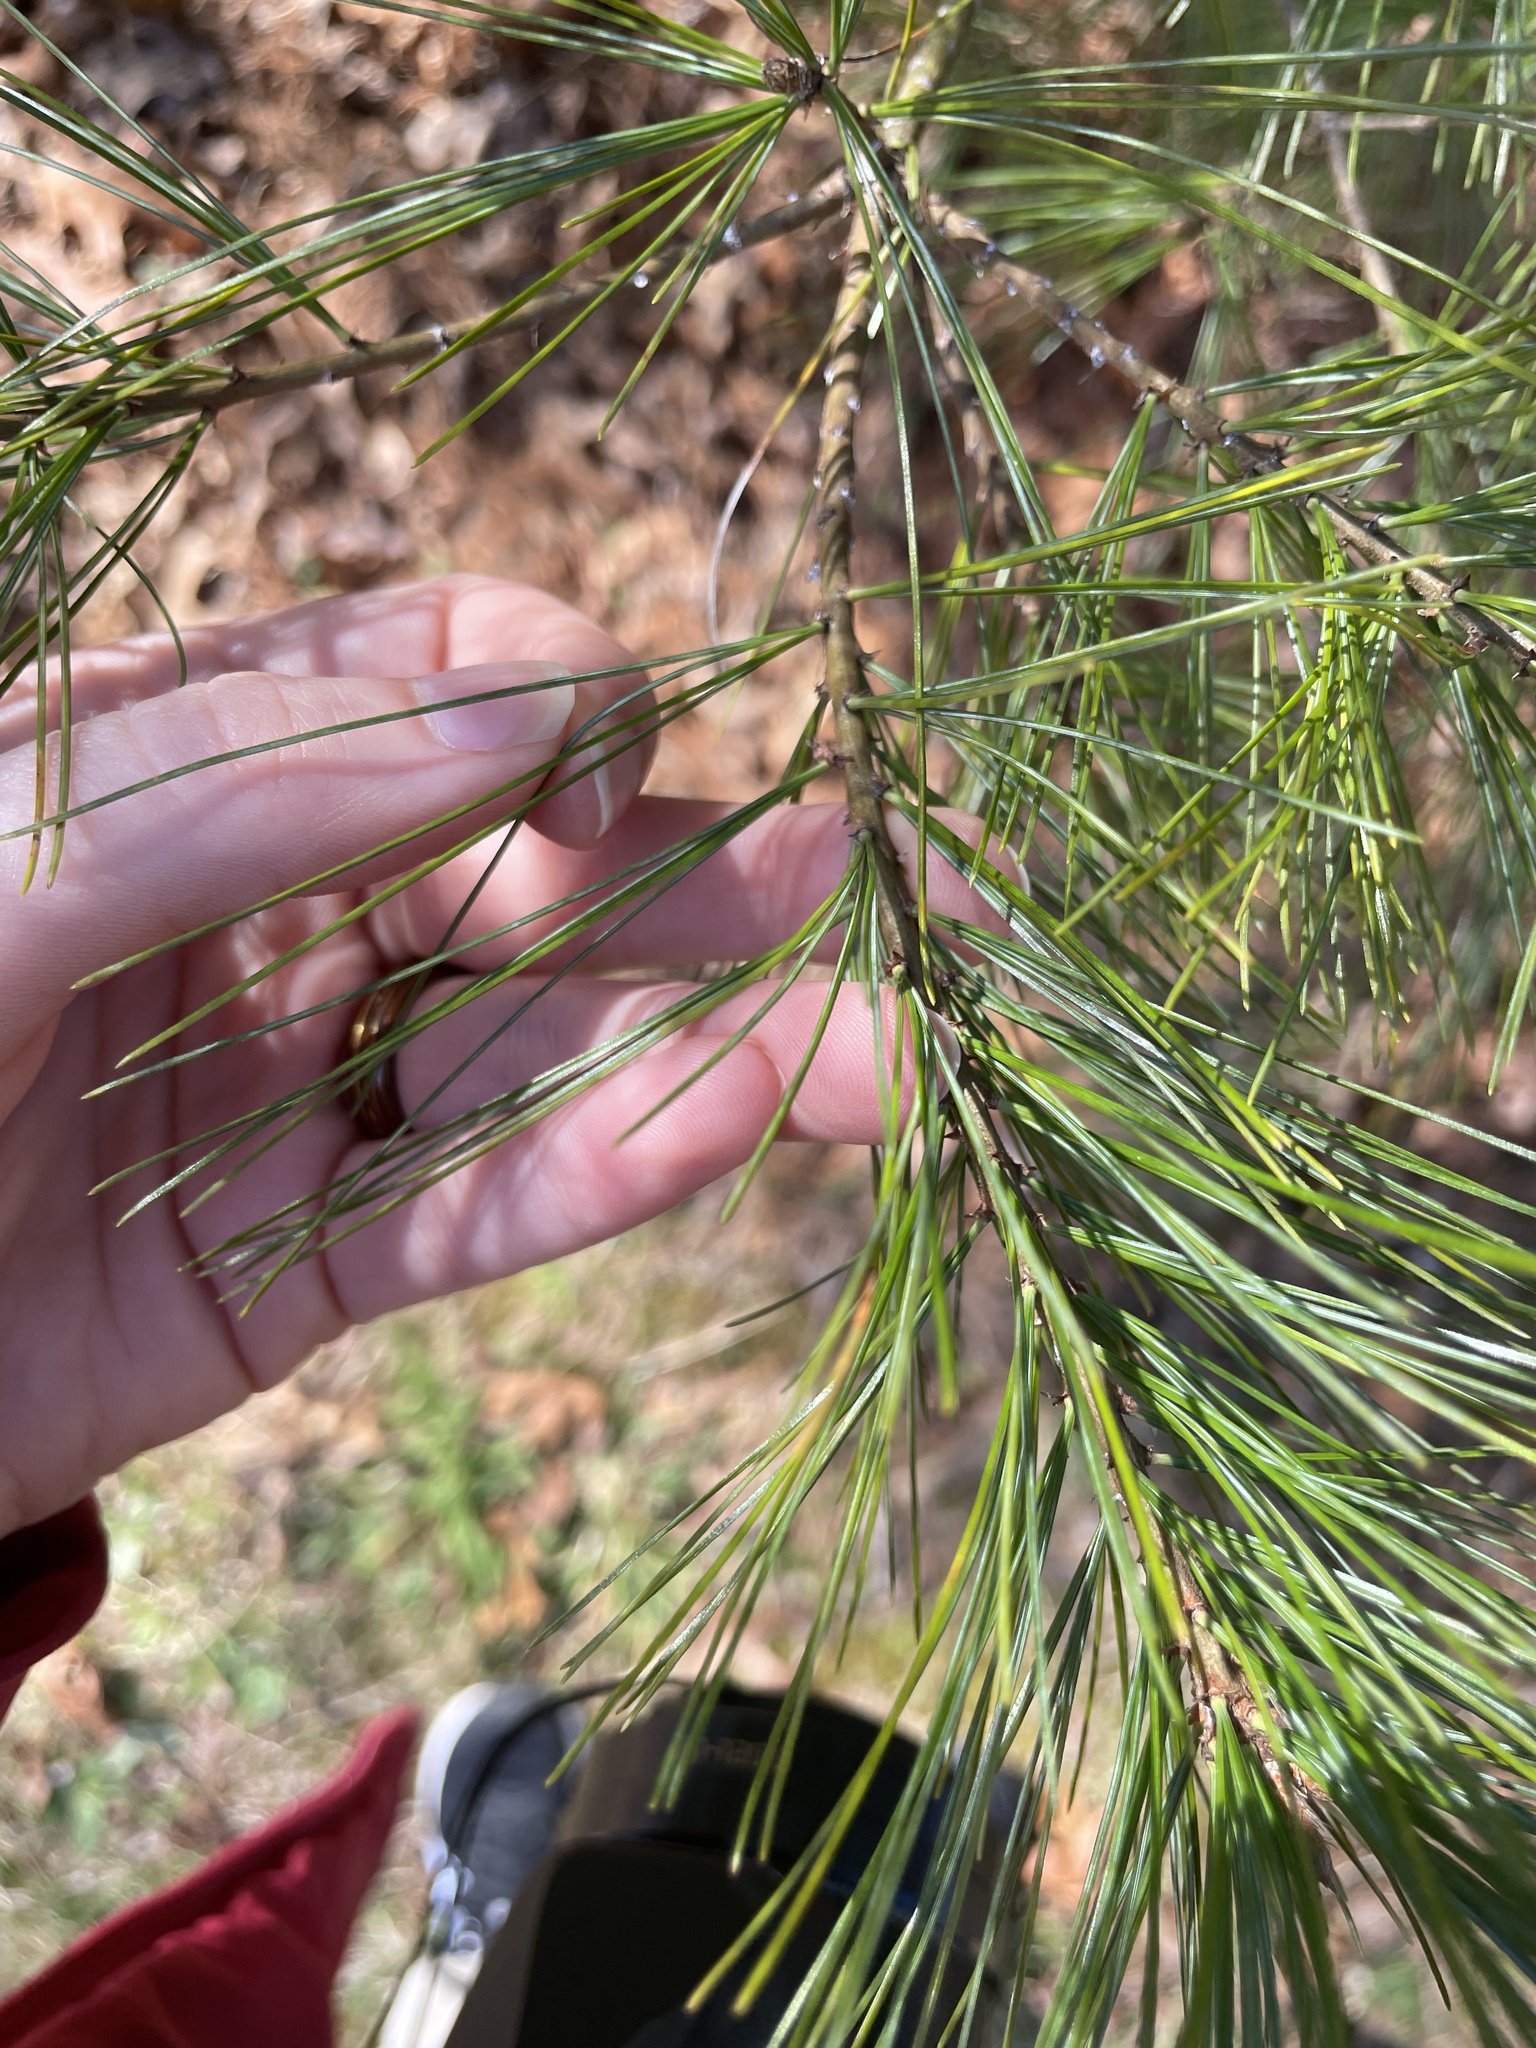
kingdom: Plantae
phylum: Tracheophyta
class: Pinopsida
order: Pinales
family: Pinaceae
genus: Pinus
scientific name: Pinus strobus
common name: Weymouth pine
